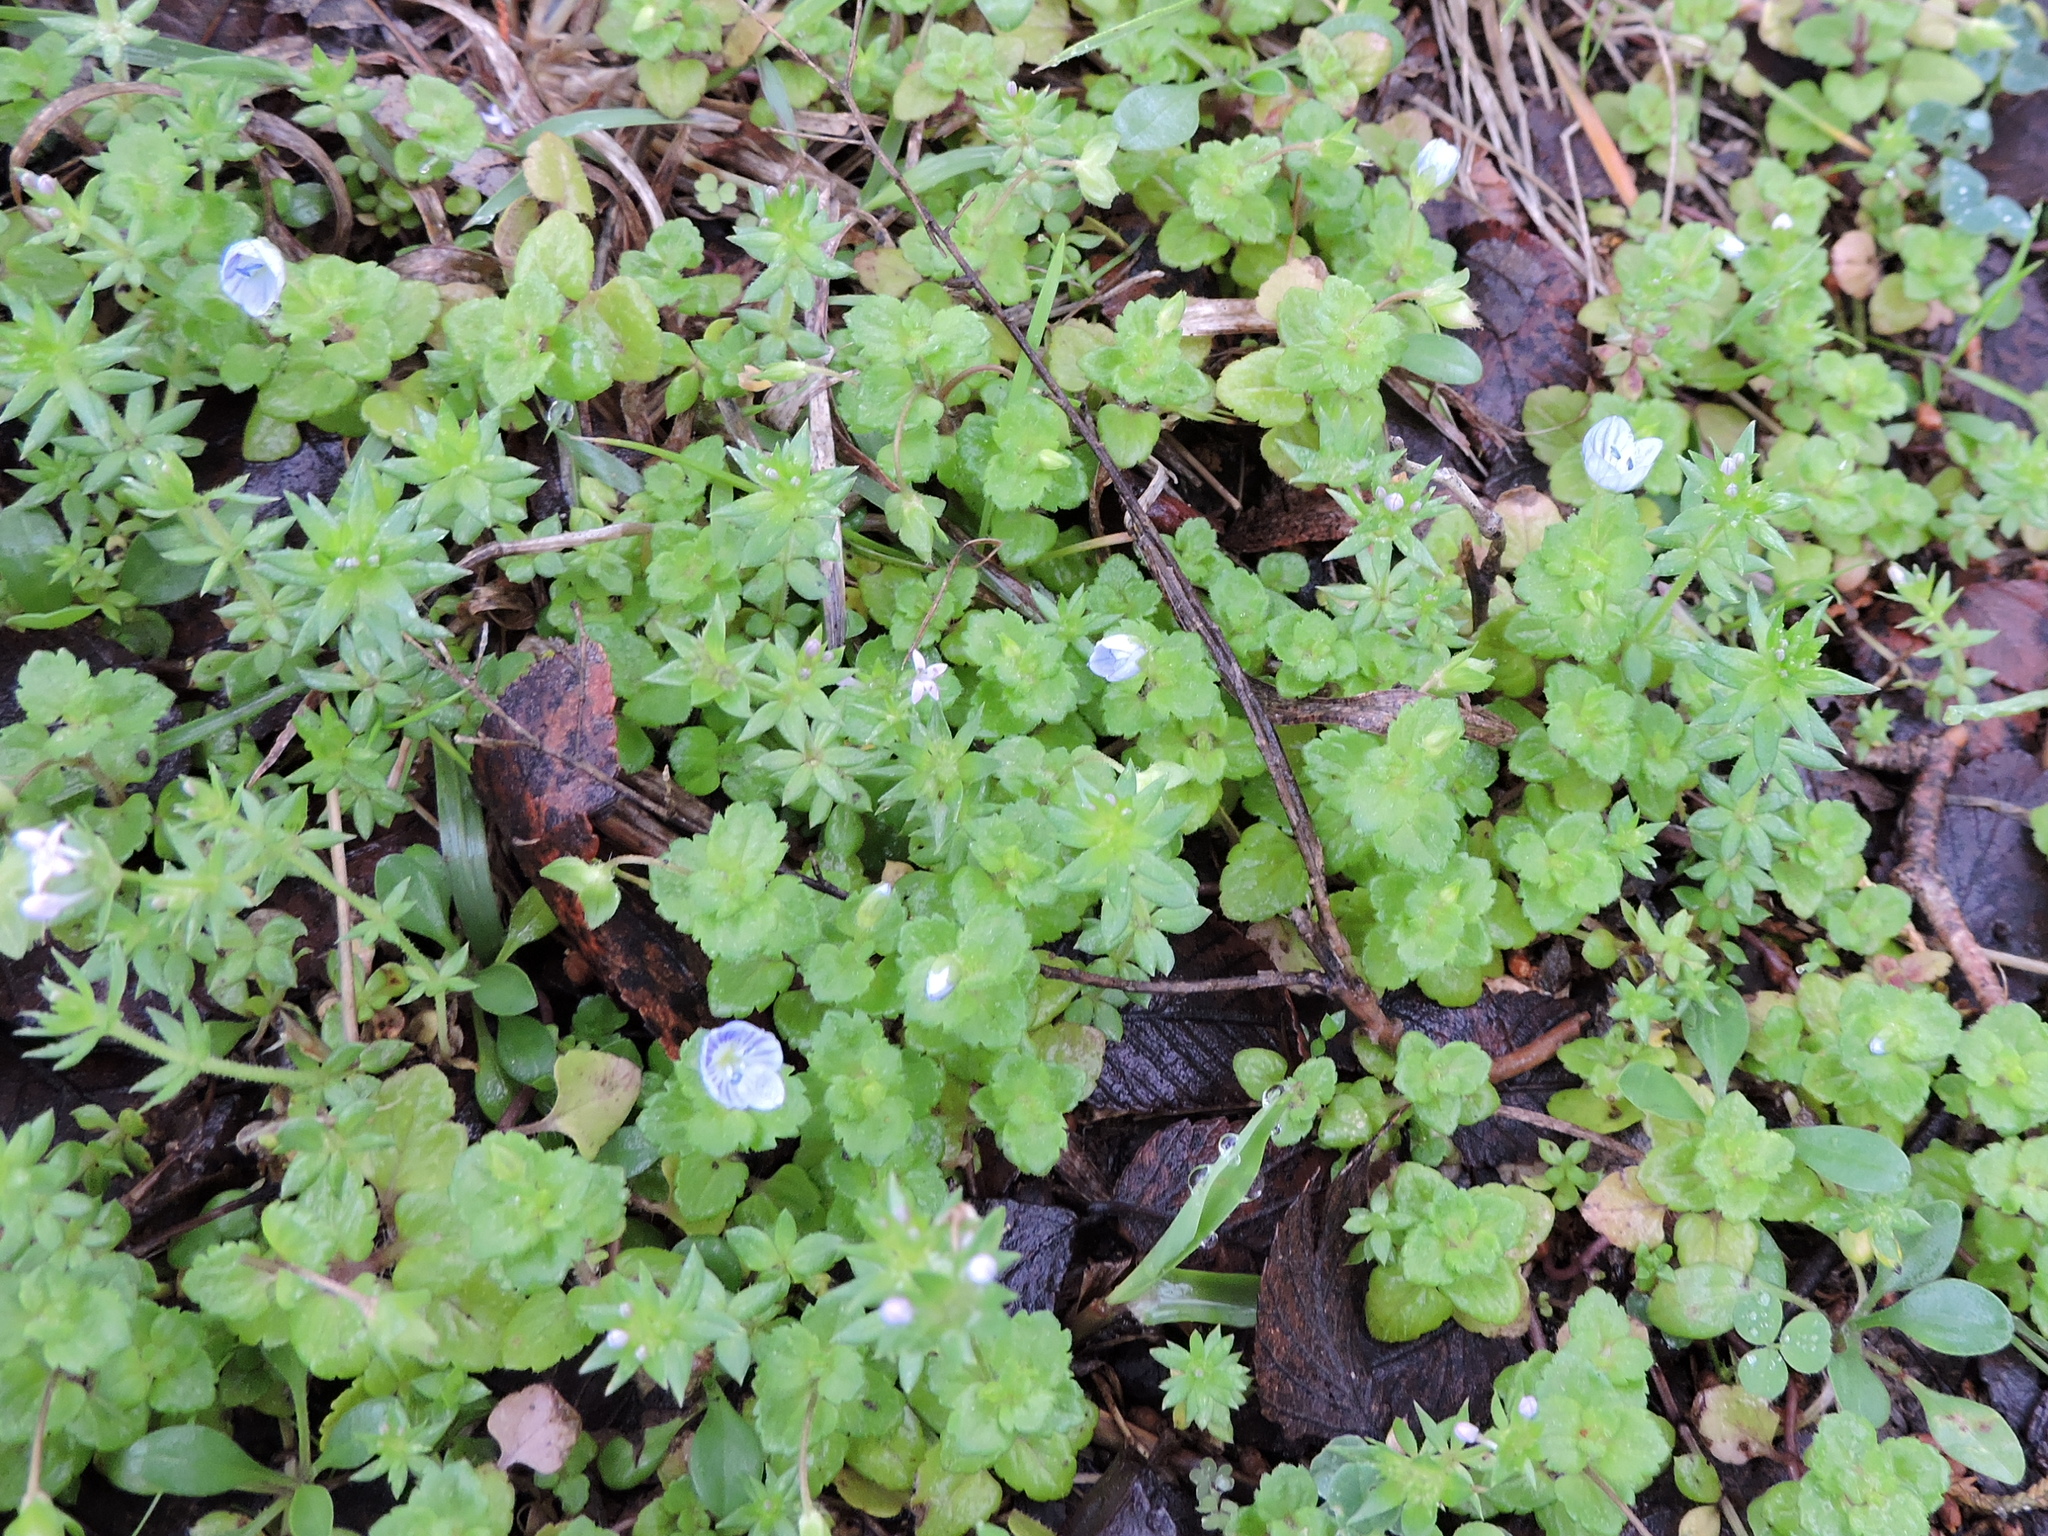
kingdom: Plantae
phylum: Tracheophyta
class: Magnoliopsida
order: Lamiales
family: Plantaginaceae
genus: Veronica
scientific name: Veronica persica
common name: Common field-speedwell
